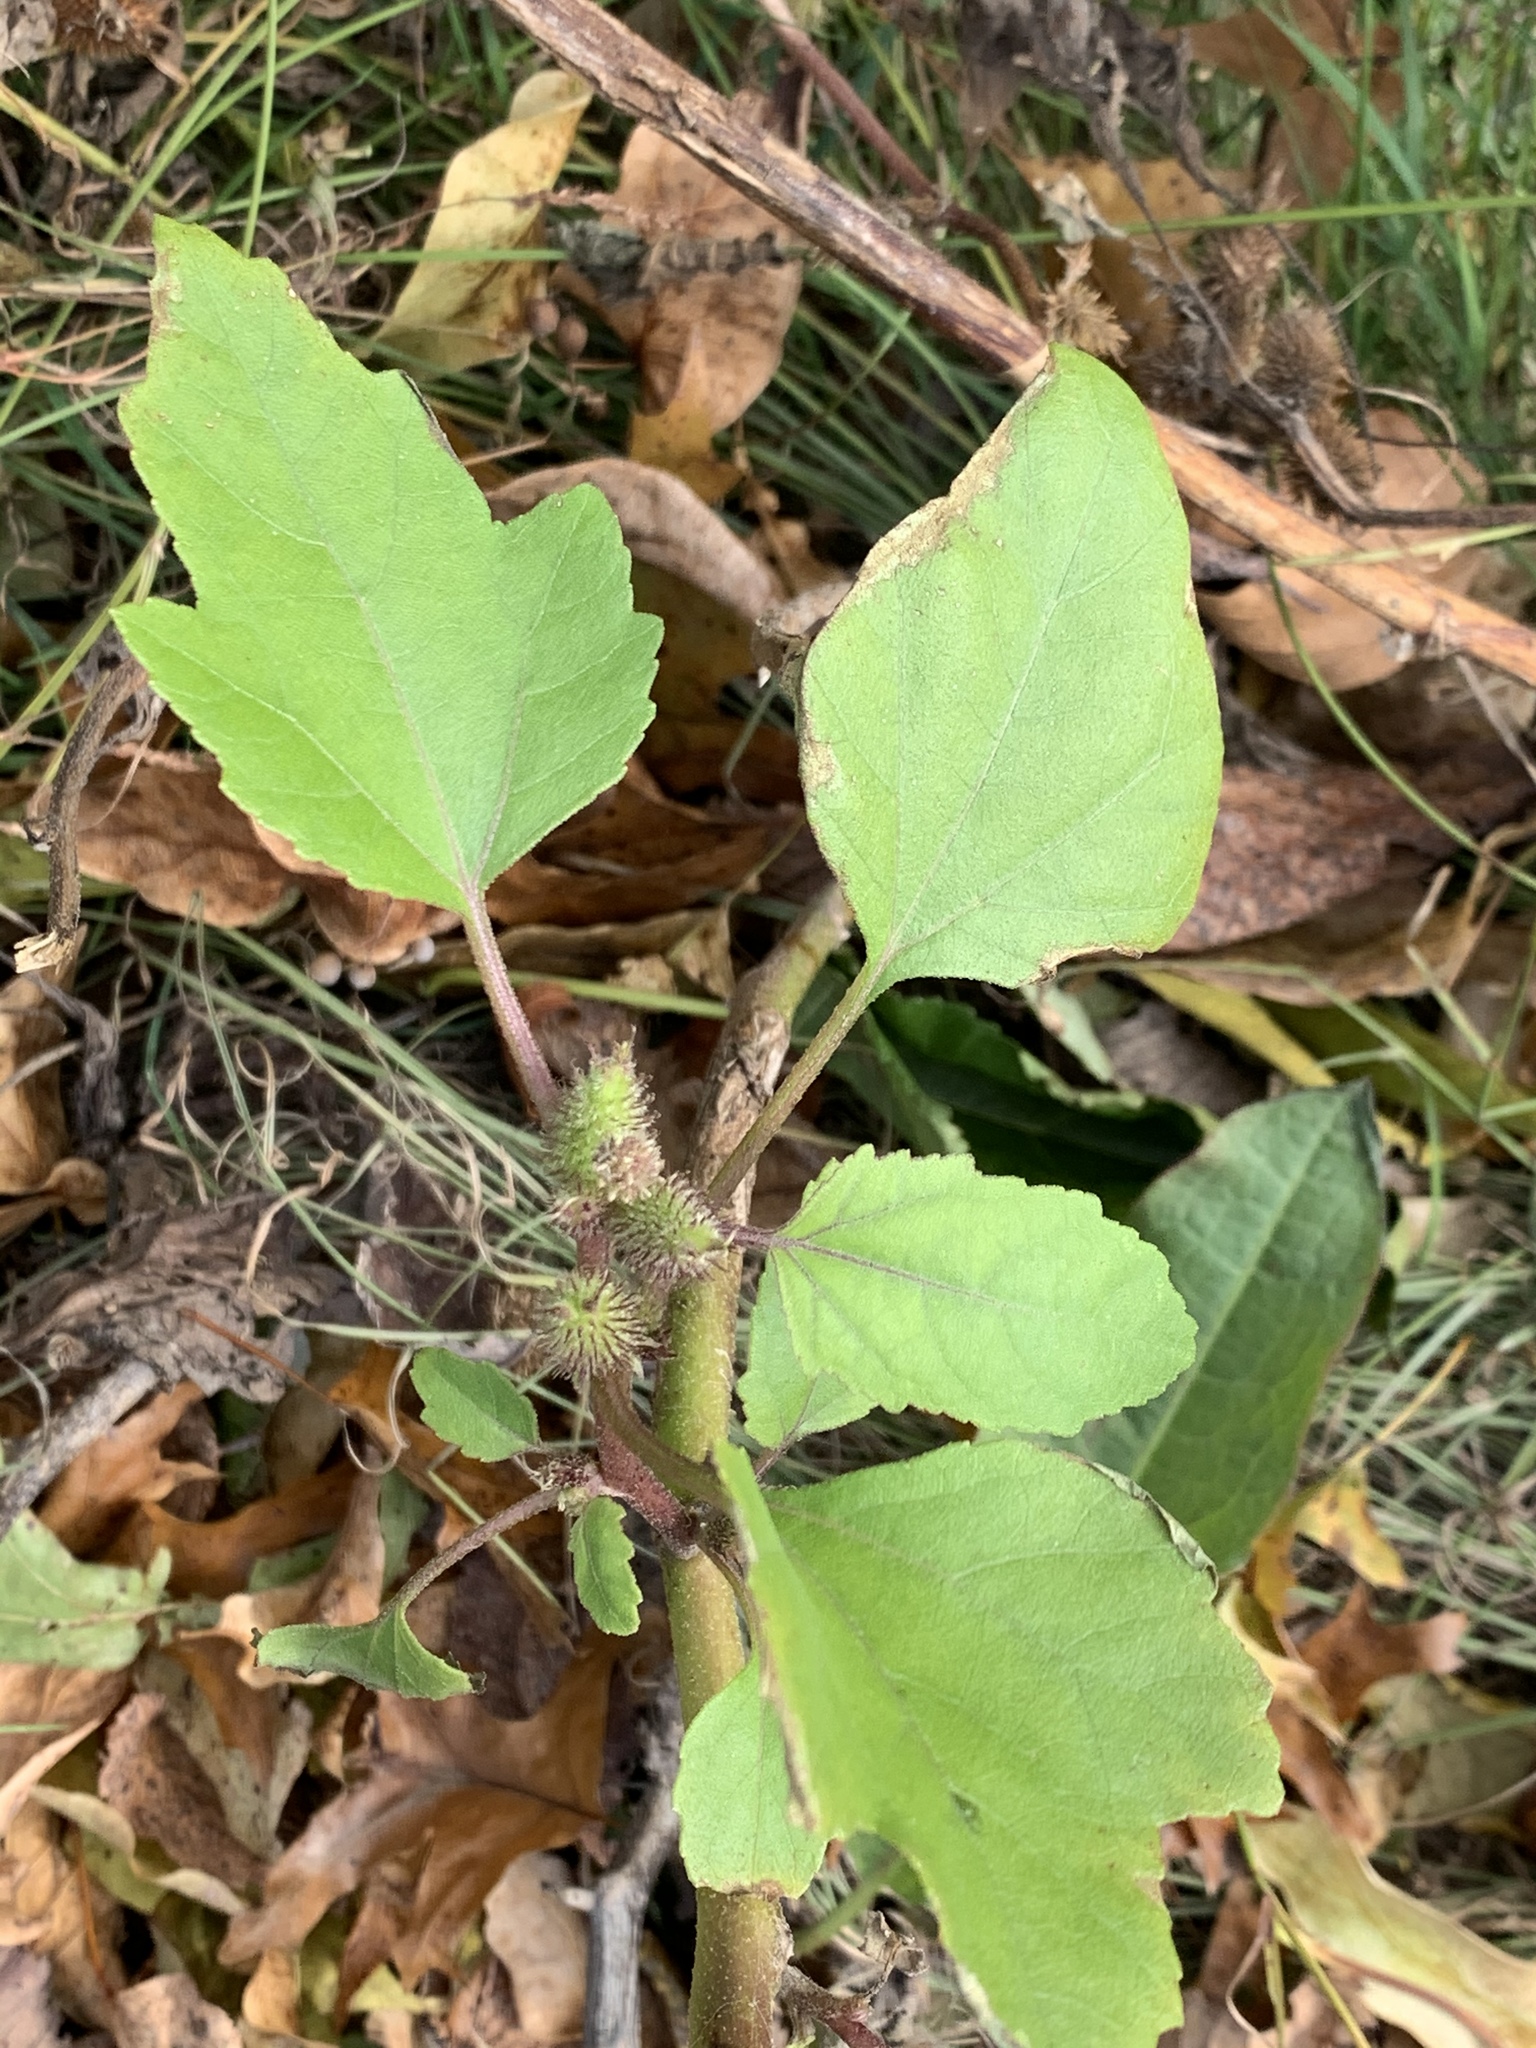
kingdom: Plantae
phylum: Tracheophyta
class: Magnoliopsida
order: Asterales
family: Asteraceae
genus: Xanthium
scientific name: Xanthium strumarium
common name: Rough cocklebur
